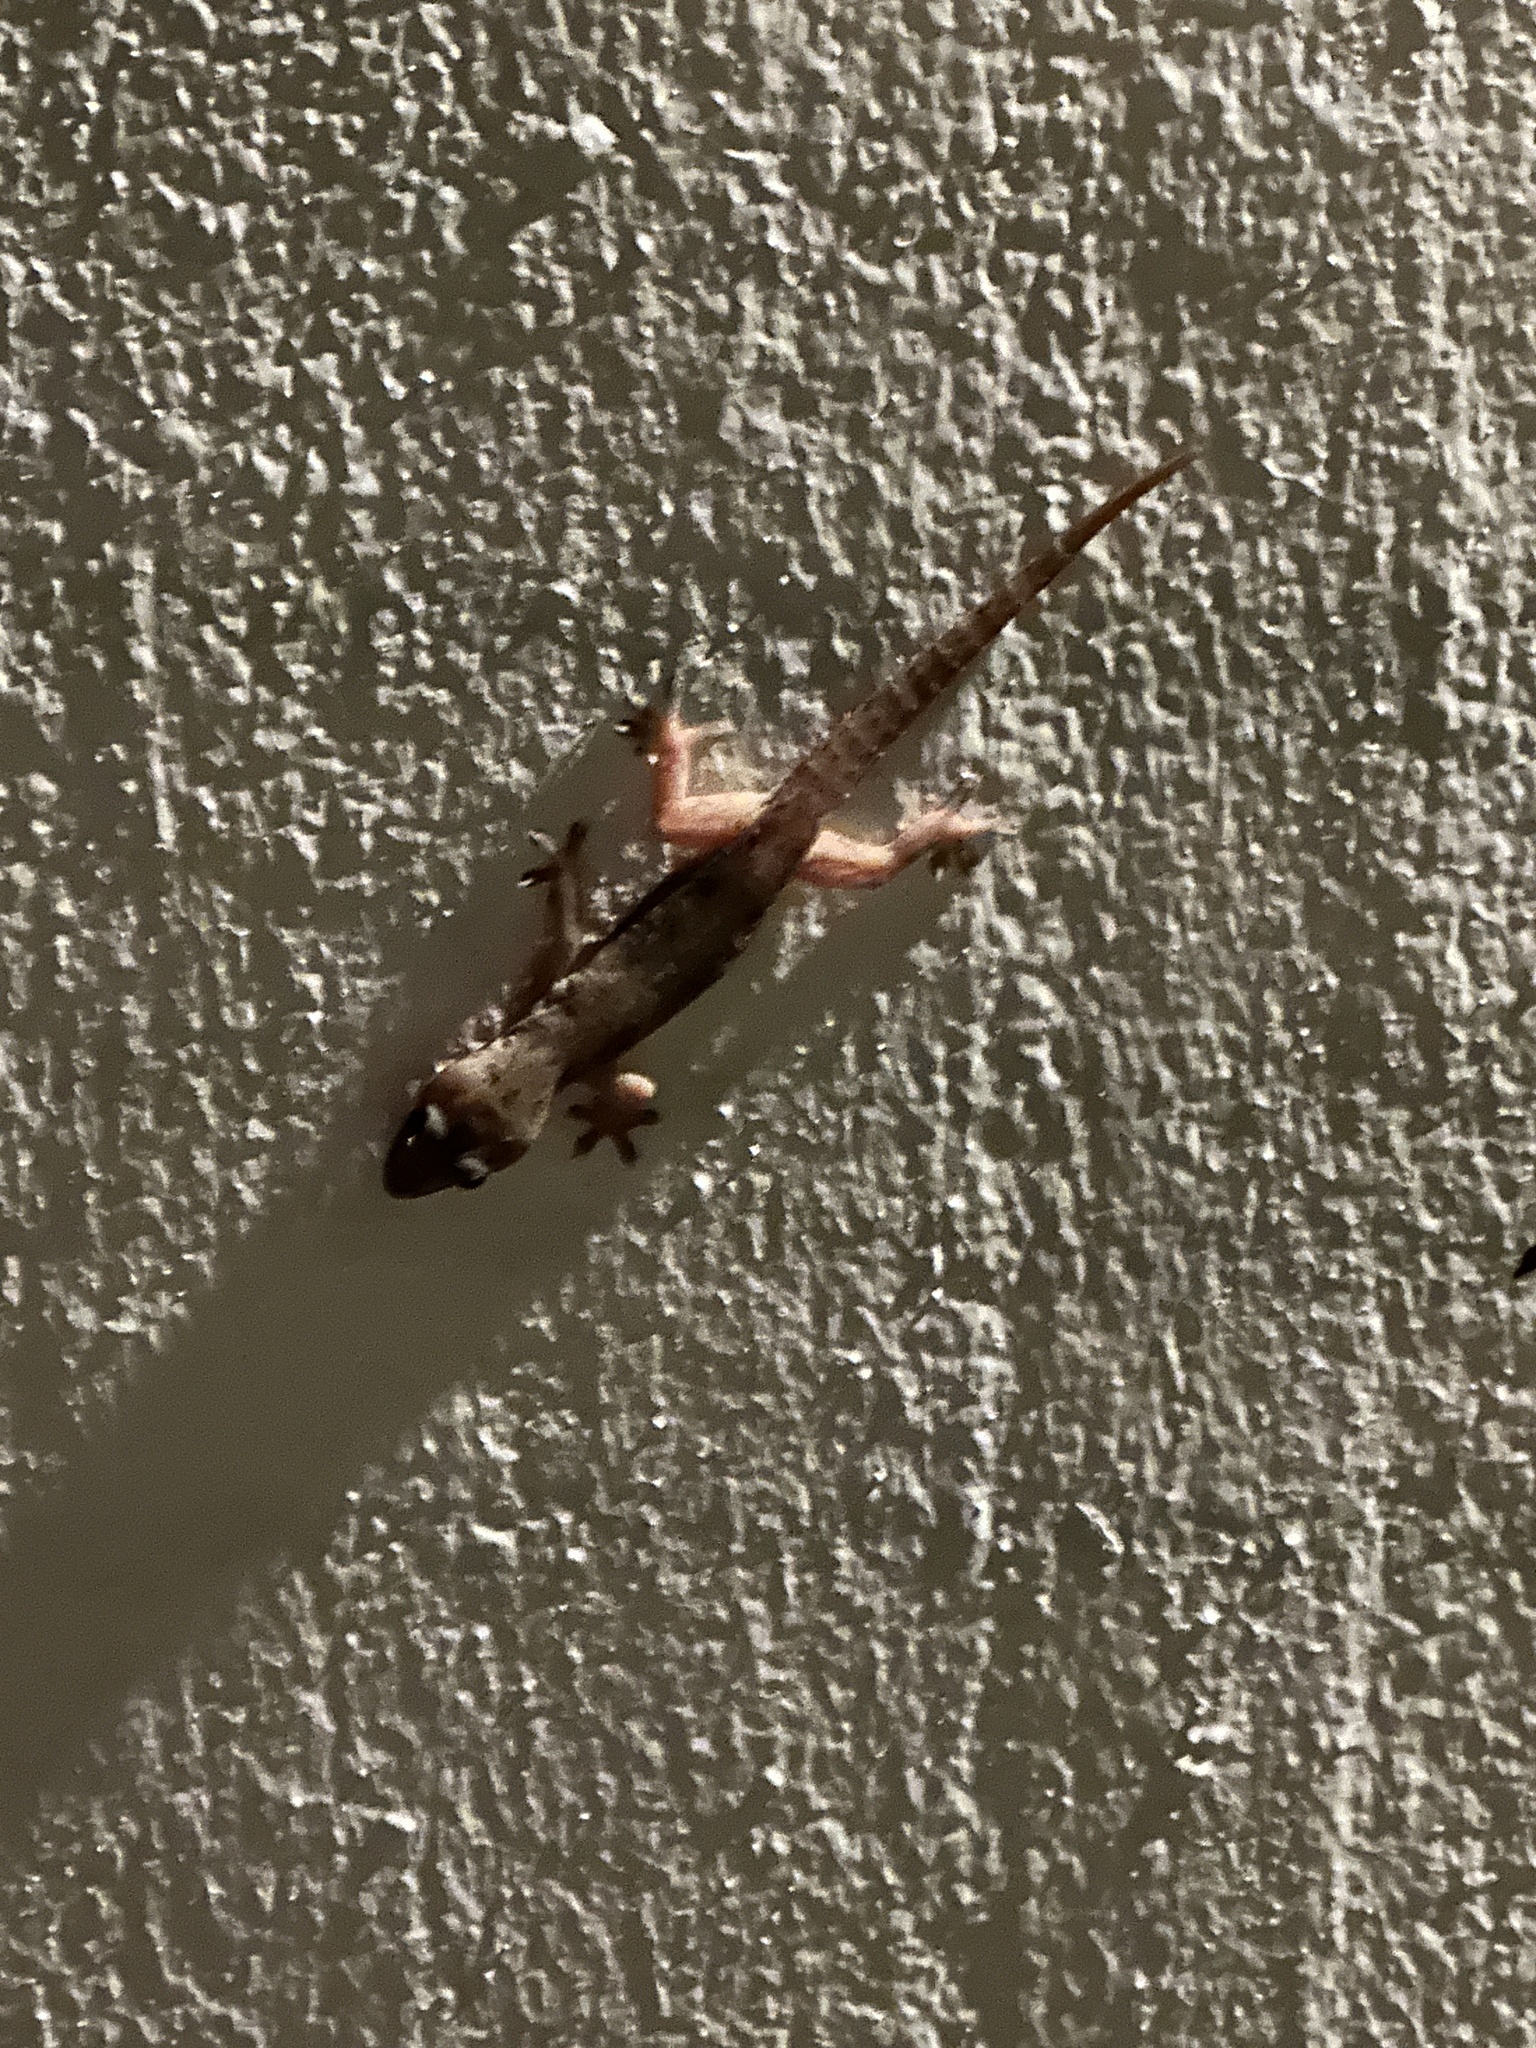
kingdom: Animalia
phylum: Chordata
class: Squamata
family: Gekkonidae
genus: Hemidactylus
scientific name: Hemidactylus frenatus
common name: Common house gecko
